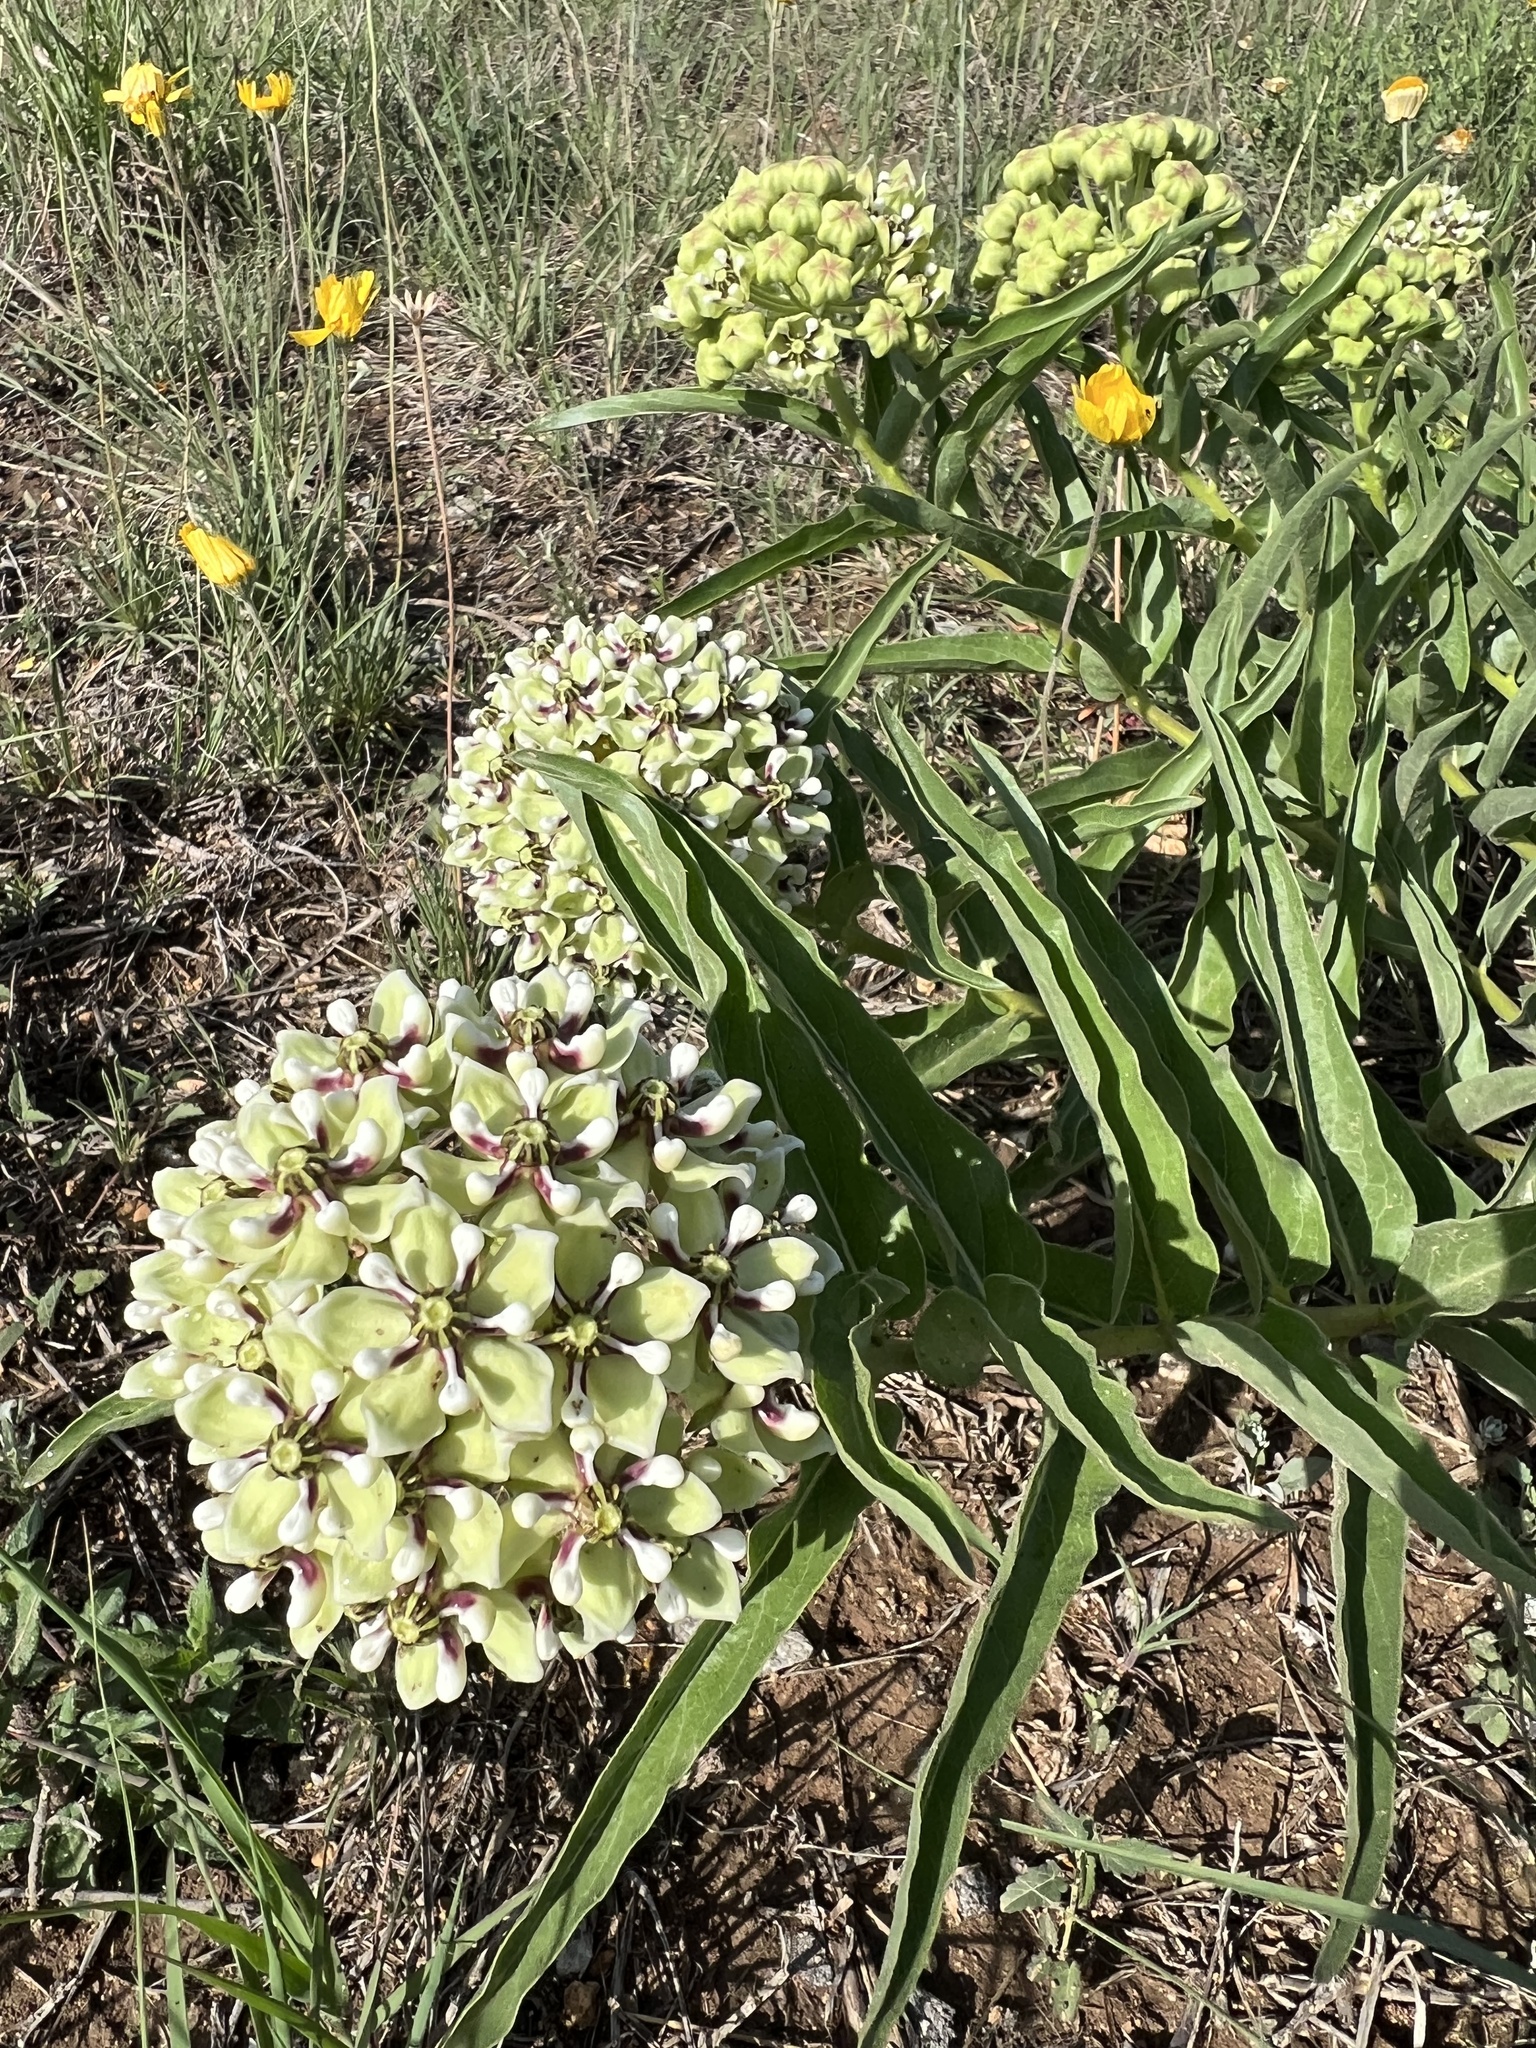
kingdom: Plantae
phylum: Tracheophyta
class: Magnoliopsida
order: Gentianales
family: Apocynaceae
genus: Asclepias
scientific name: Asclepias asperula
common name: Antelope horns
